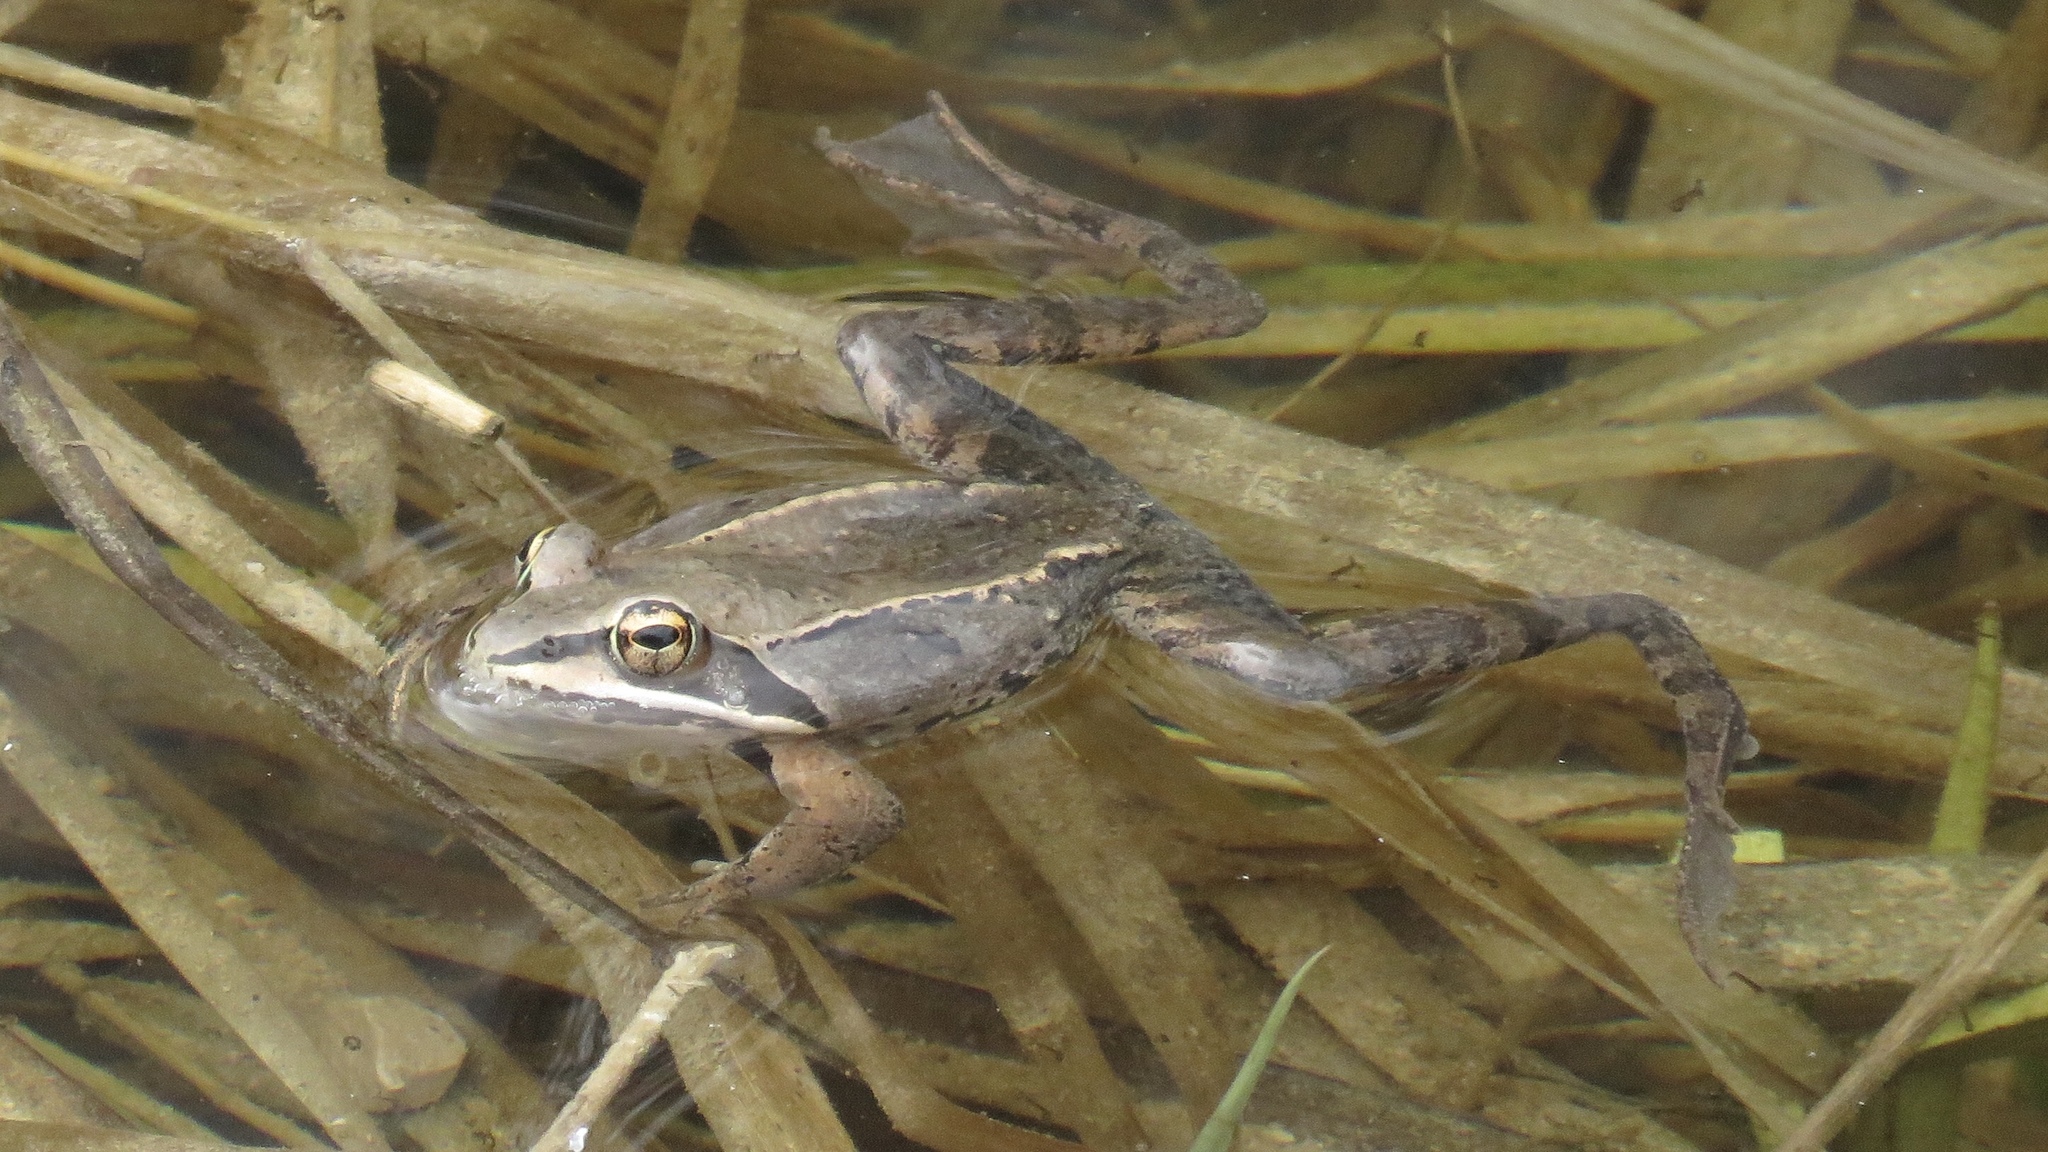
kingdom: Animalia
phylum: Chordata
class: Amphibia
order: Anura
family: Ranidae
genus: Lithobates
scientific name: Lithobates sylvaticus
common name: Wood frog
